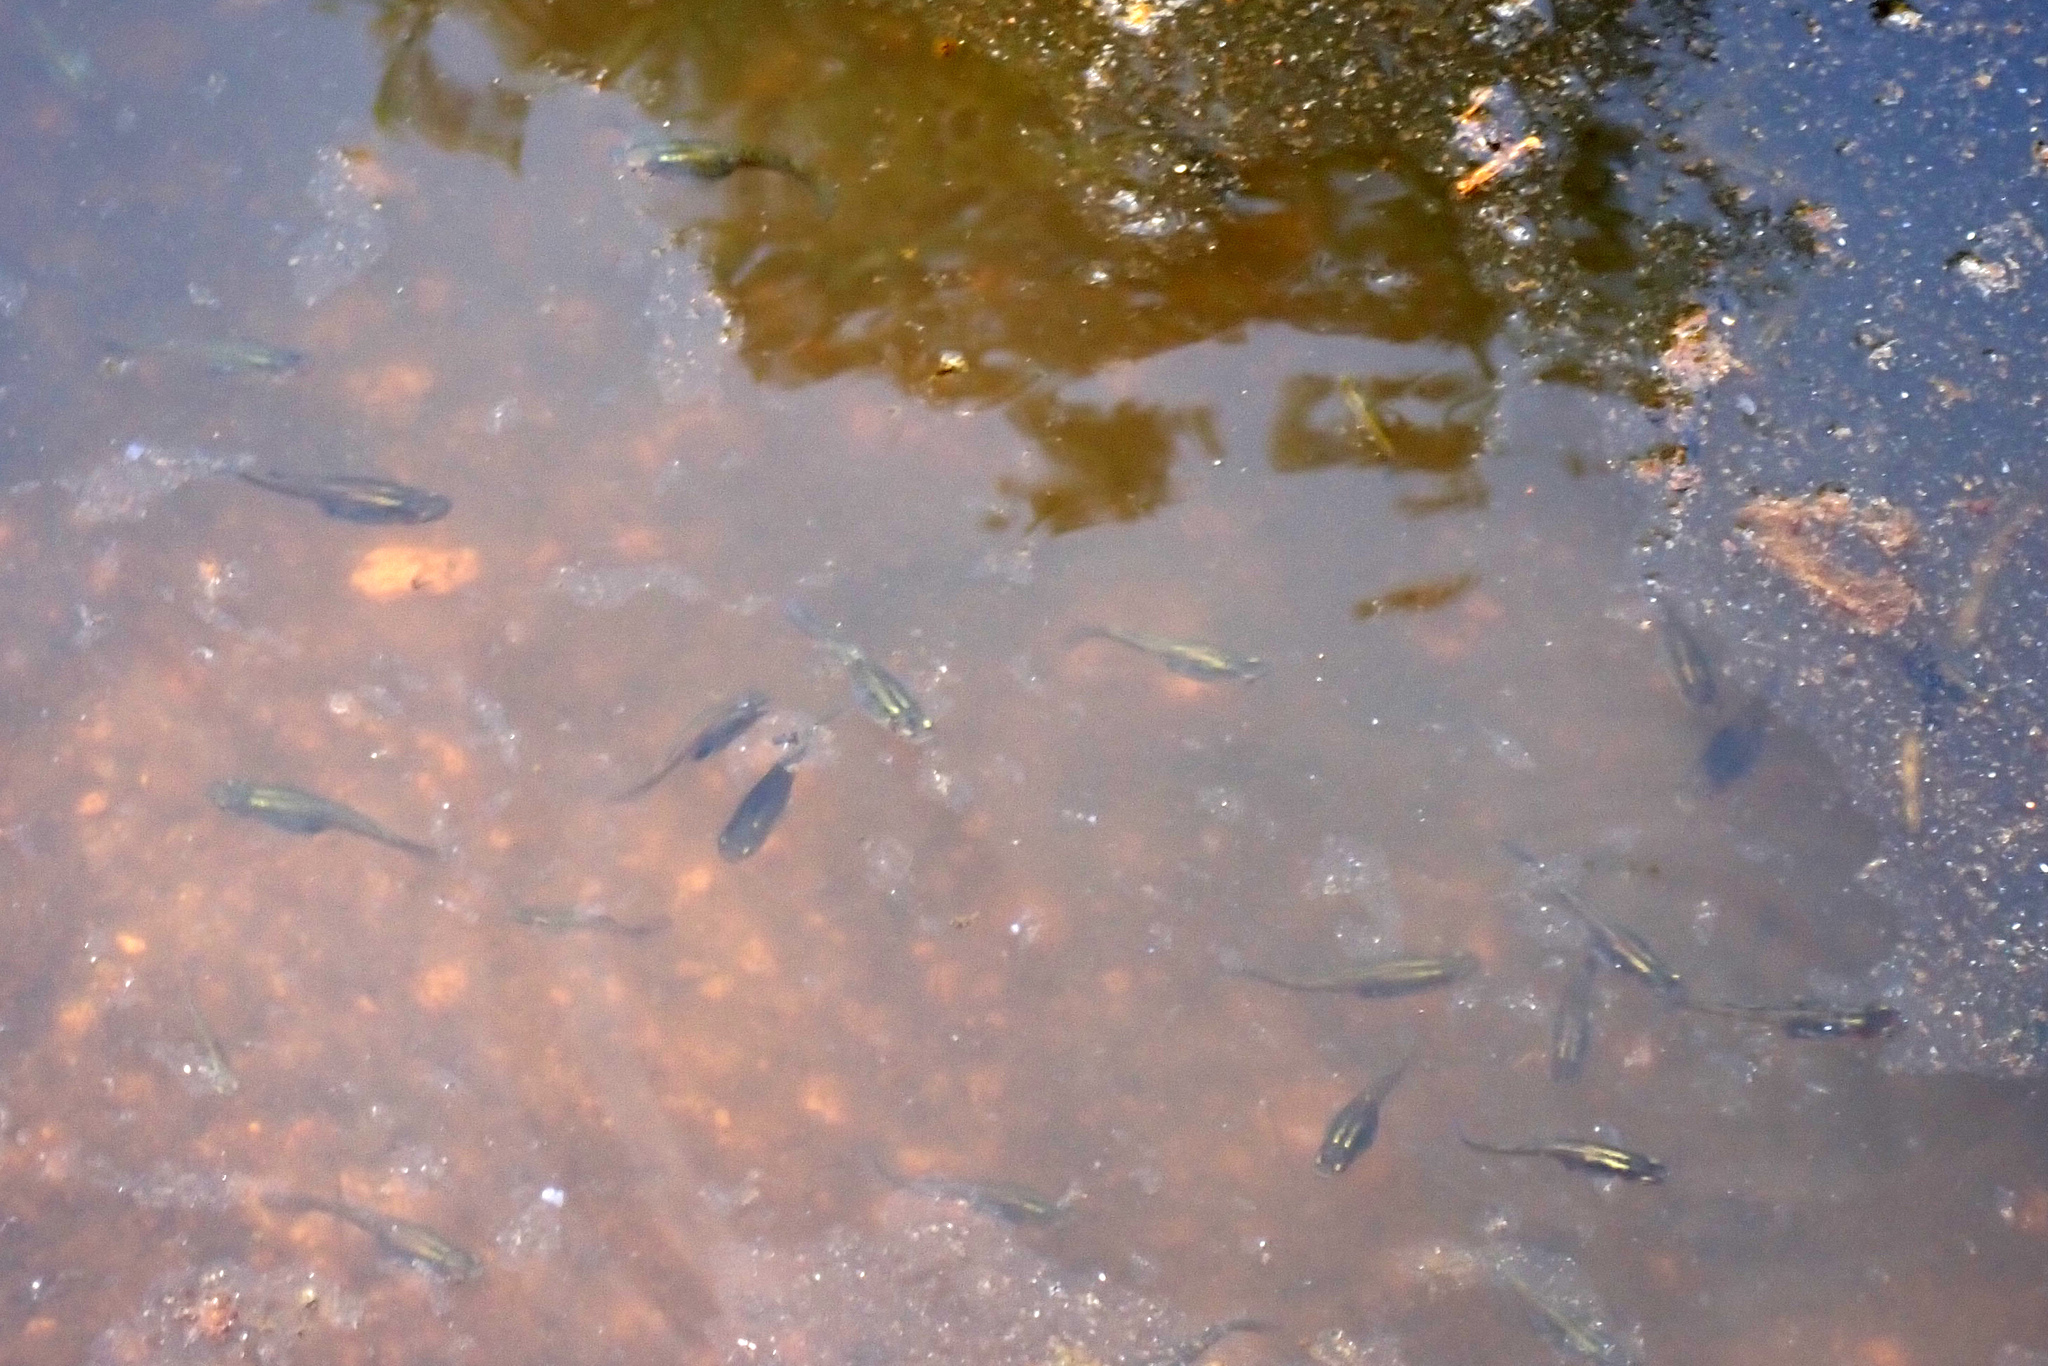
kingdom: Animalia
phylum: Chordata
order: Cyprinodontiformes
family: Poeciliidae
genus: Gambusia
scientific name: Gambusia holbrooki
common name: Eastern mosquitofish
